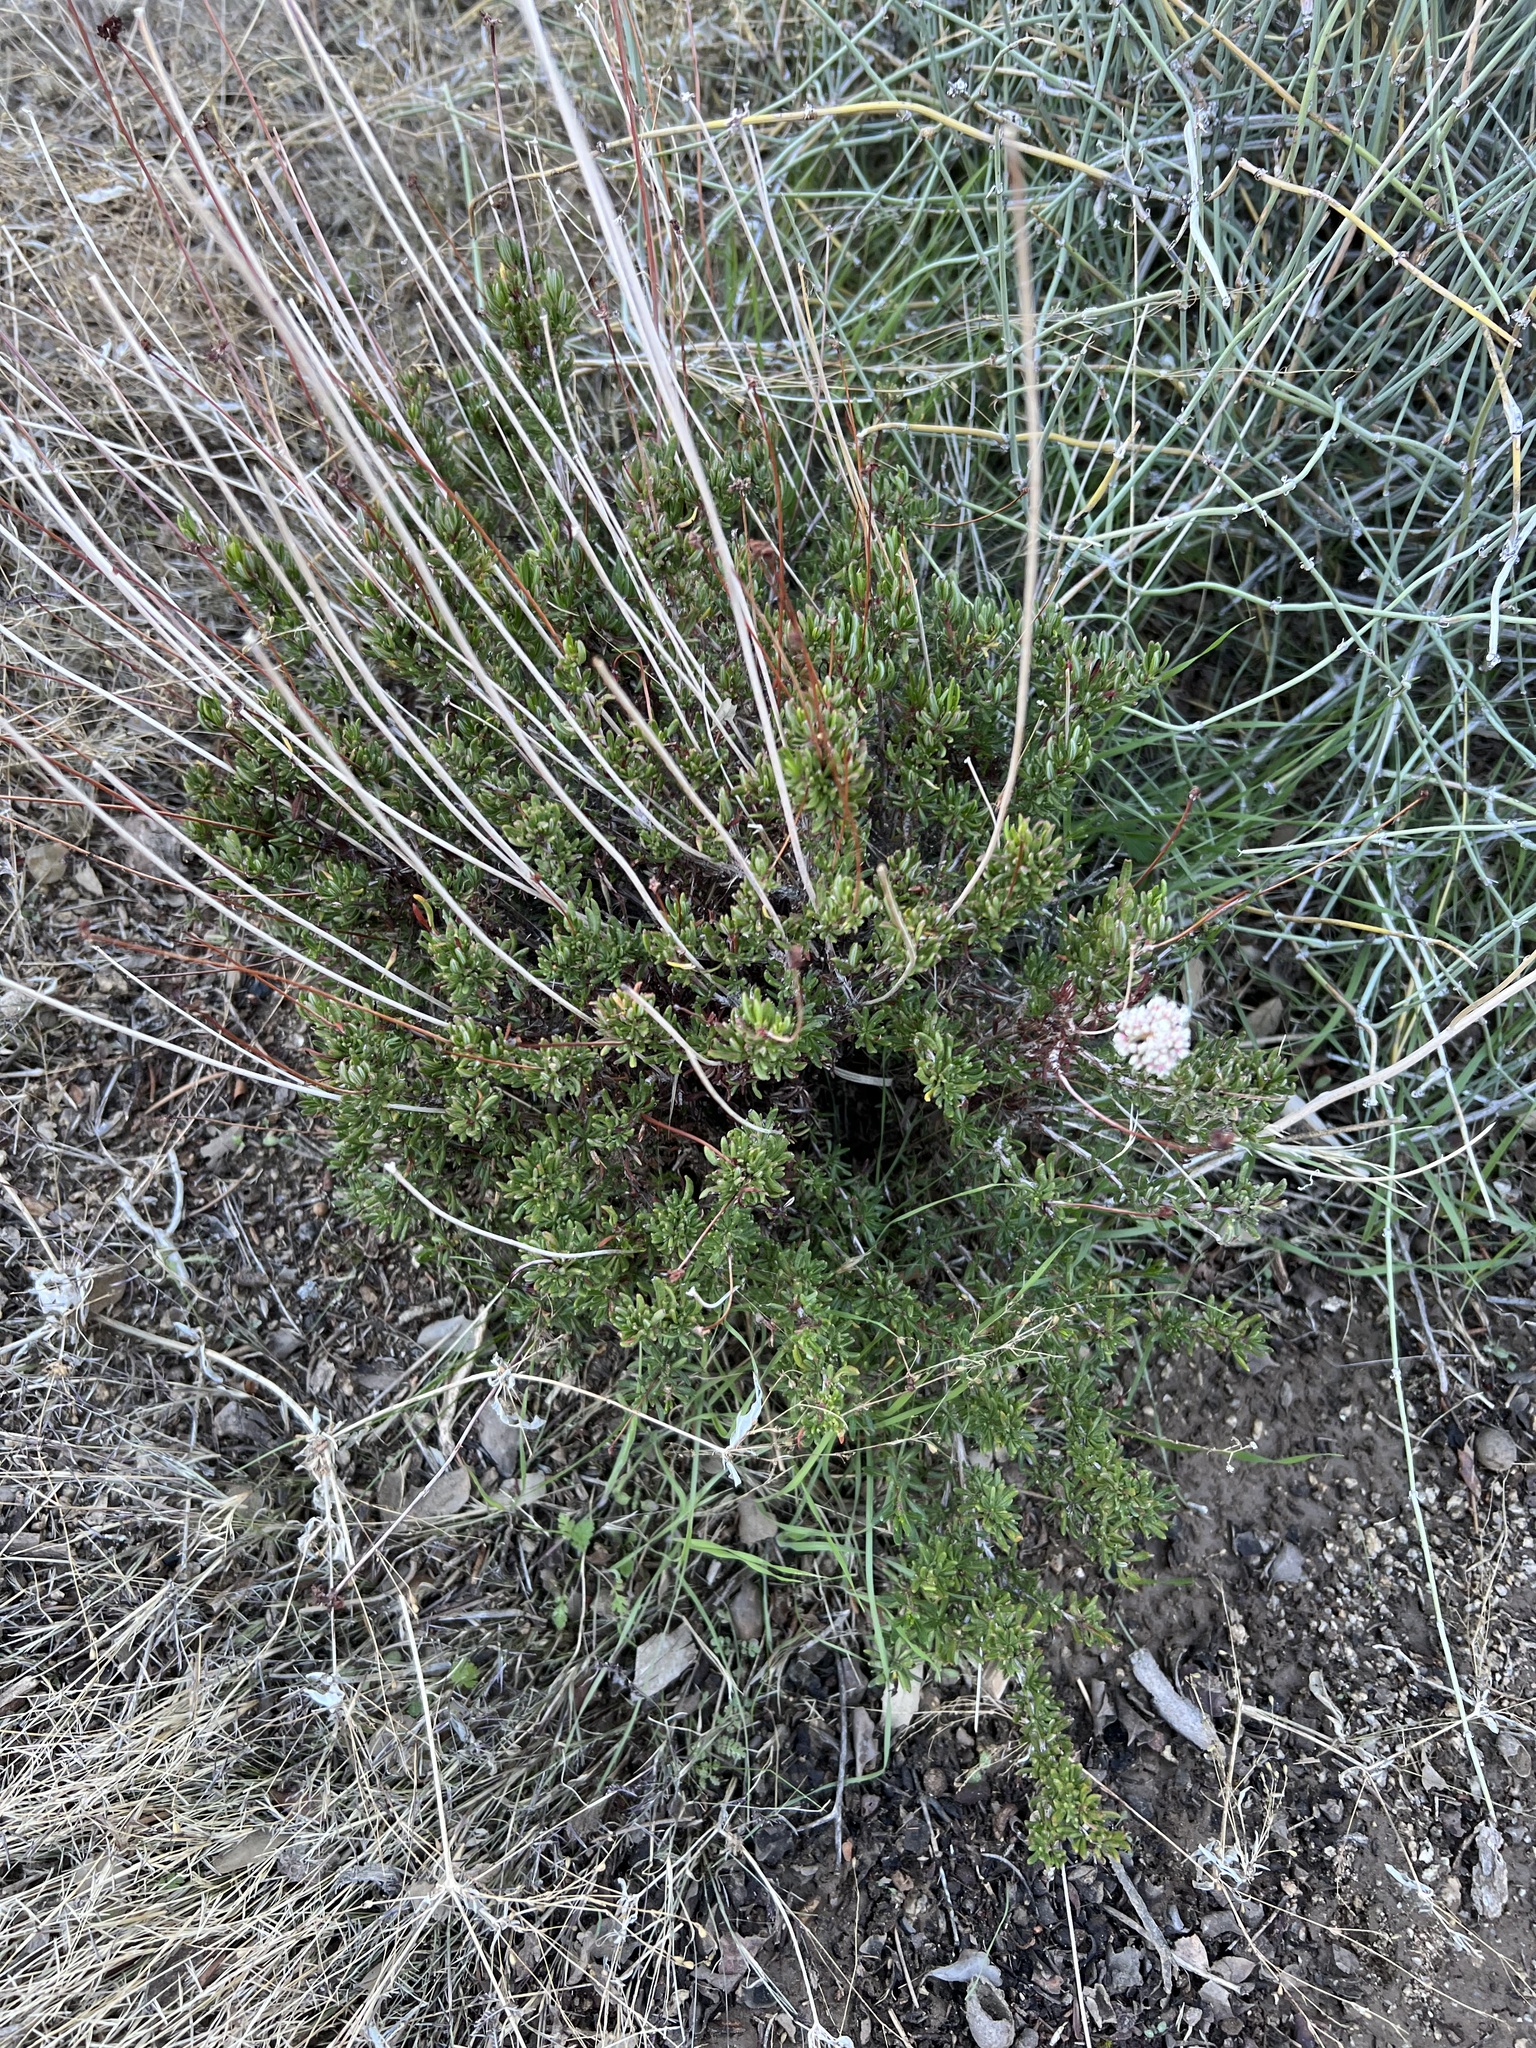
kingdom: Plantae
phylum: Tracheophyta
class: Magnoliopsida
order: Caryophyllales
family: Polygonaceae
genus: Eriogonum
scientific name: Eriogonum fasciculatum
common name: California wild buckwheat
